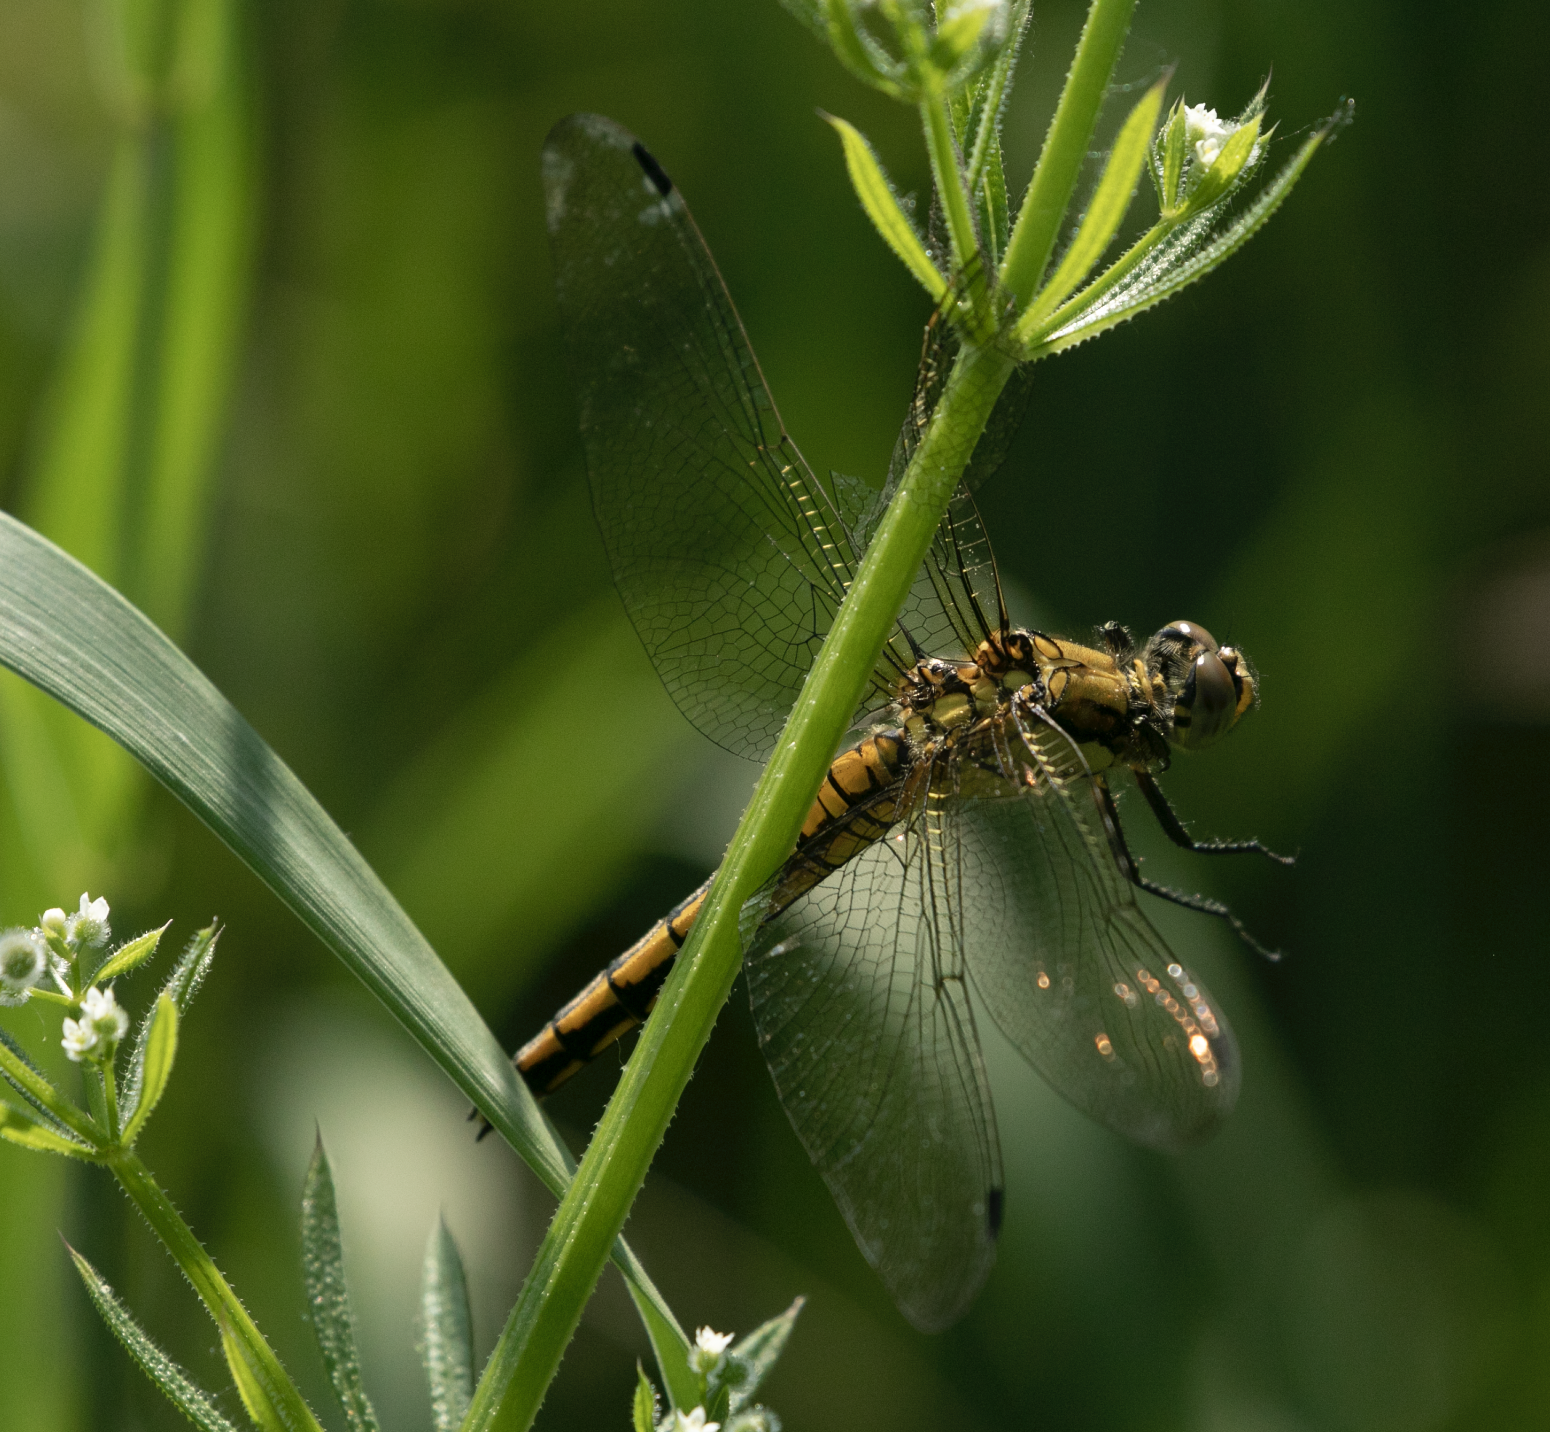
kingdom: Animalia
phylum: Arthropoda
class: Insecta
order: Odonata
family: Libellulidae
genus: Orthetrum
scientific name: Orthetrum cancellatum
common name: Black-tailed skimmer
